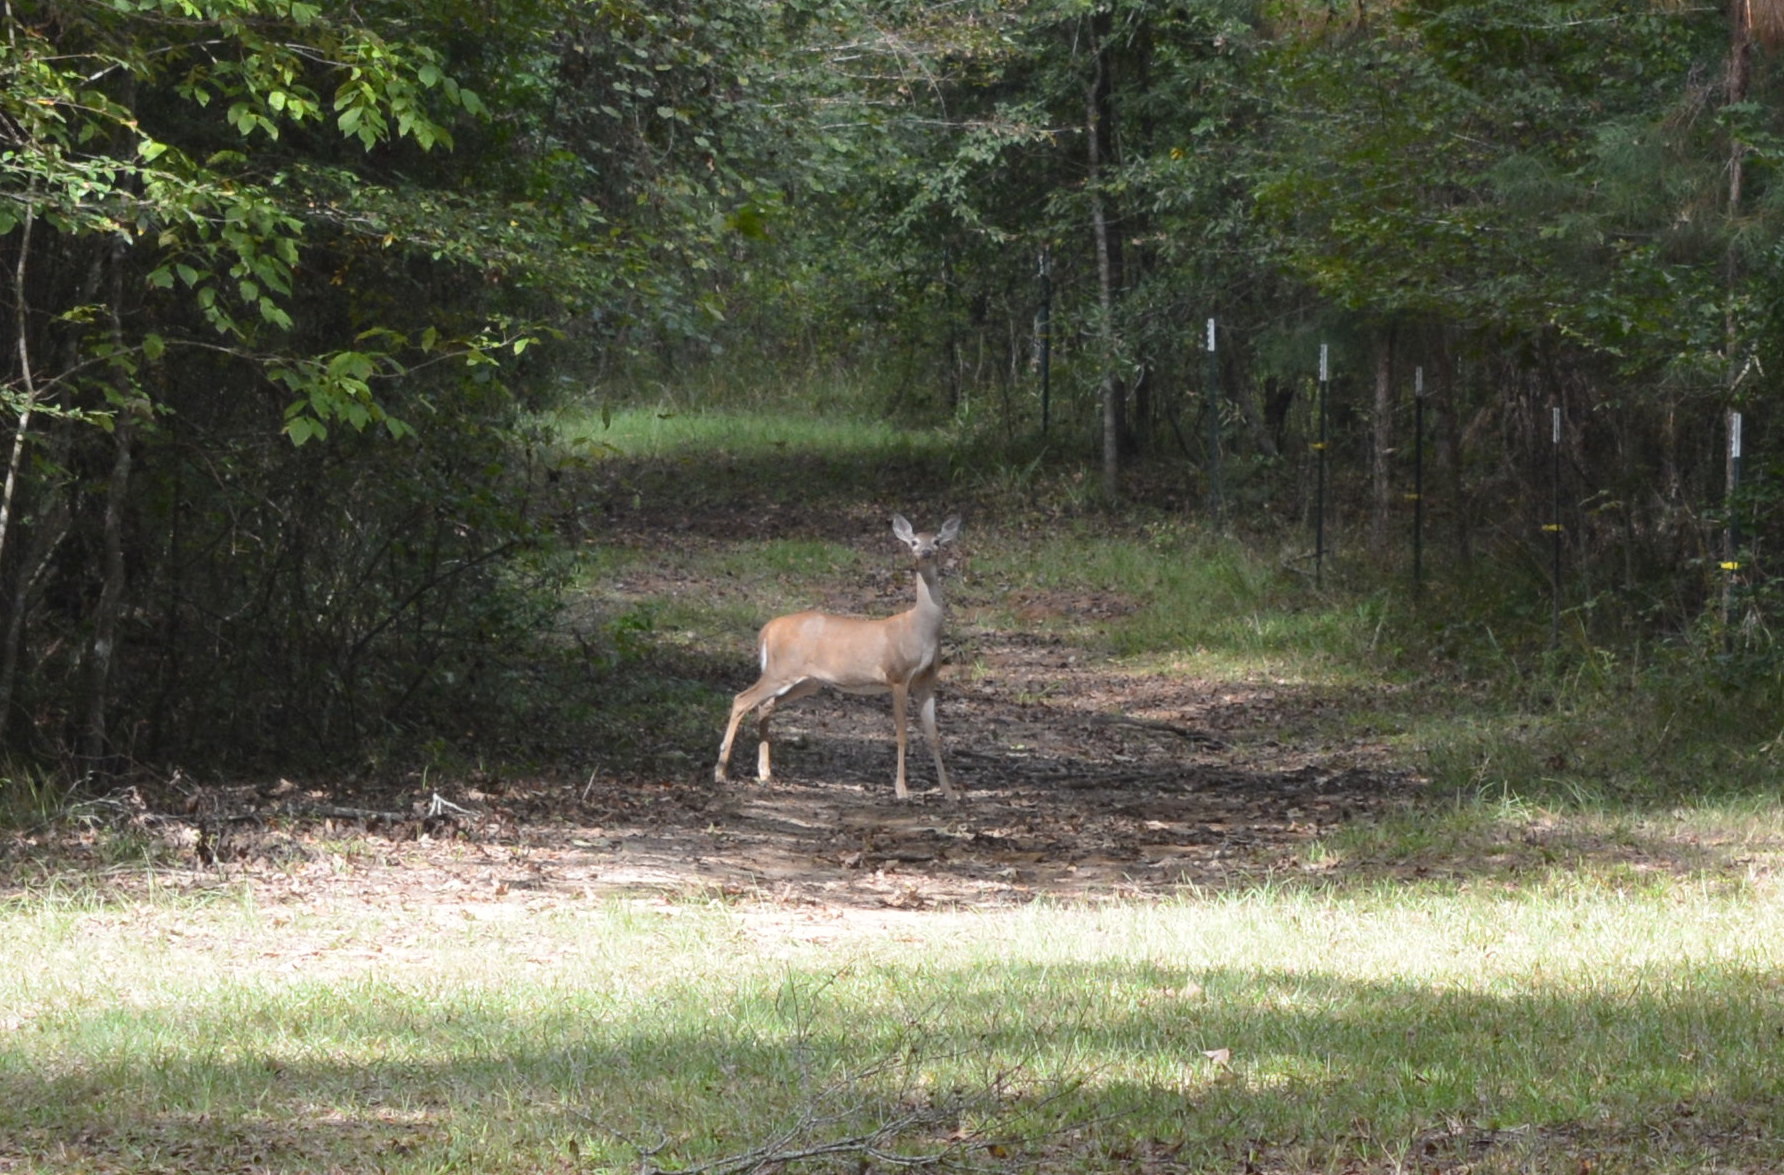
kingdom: Animalia
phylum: Chordata
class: Mammalia
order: Artiodactyla
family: Cervidae
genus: Odocoileus
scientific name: Odocoileus virginianus
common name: White-tailed deer
